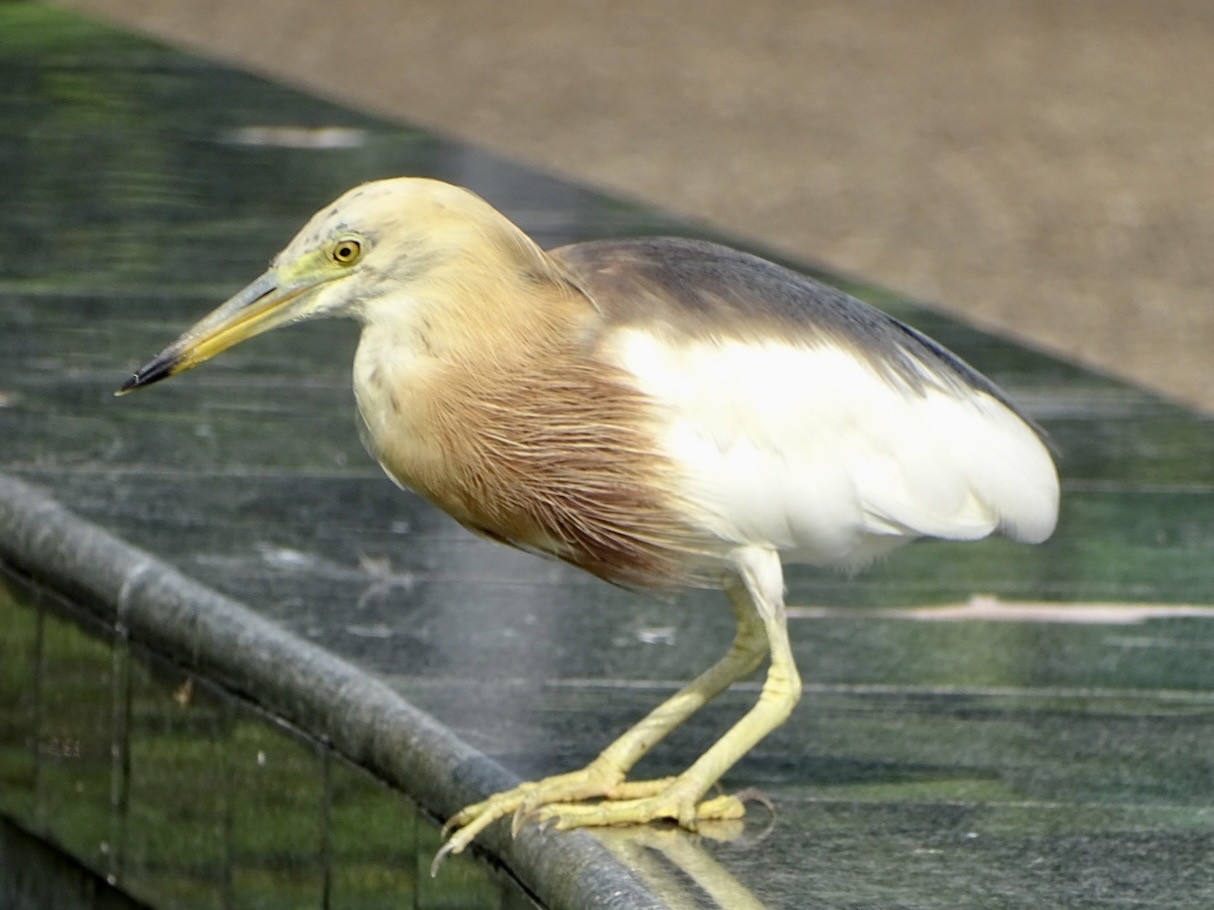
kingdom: Animalia
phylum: Chordata
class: Aves
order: Pelecaniformes
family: Ardeidae
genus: Ardeola
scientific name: Ardeola speciosa
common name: Javan pond heron
